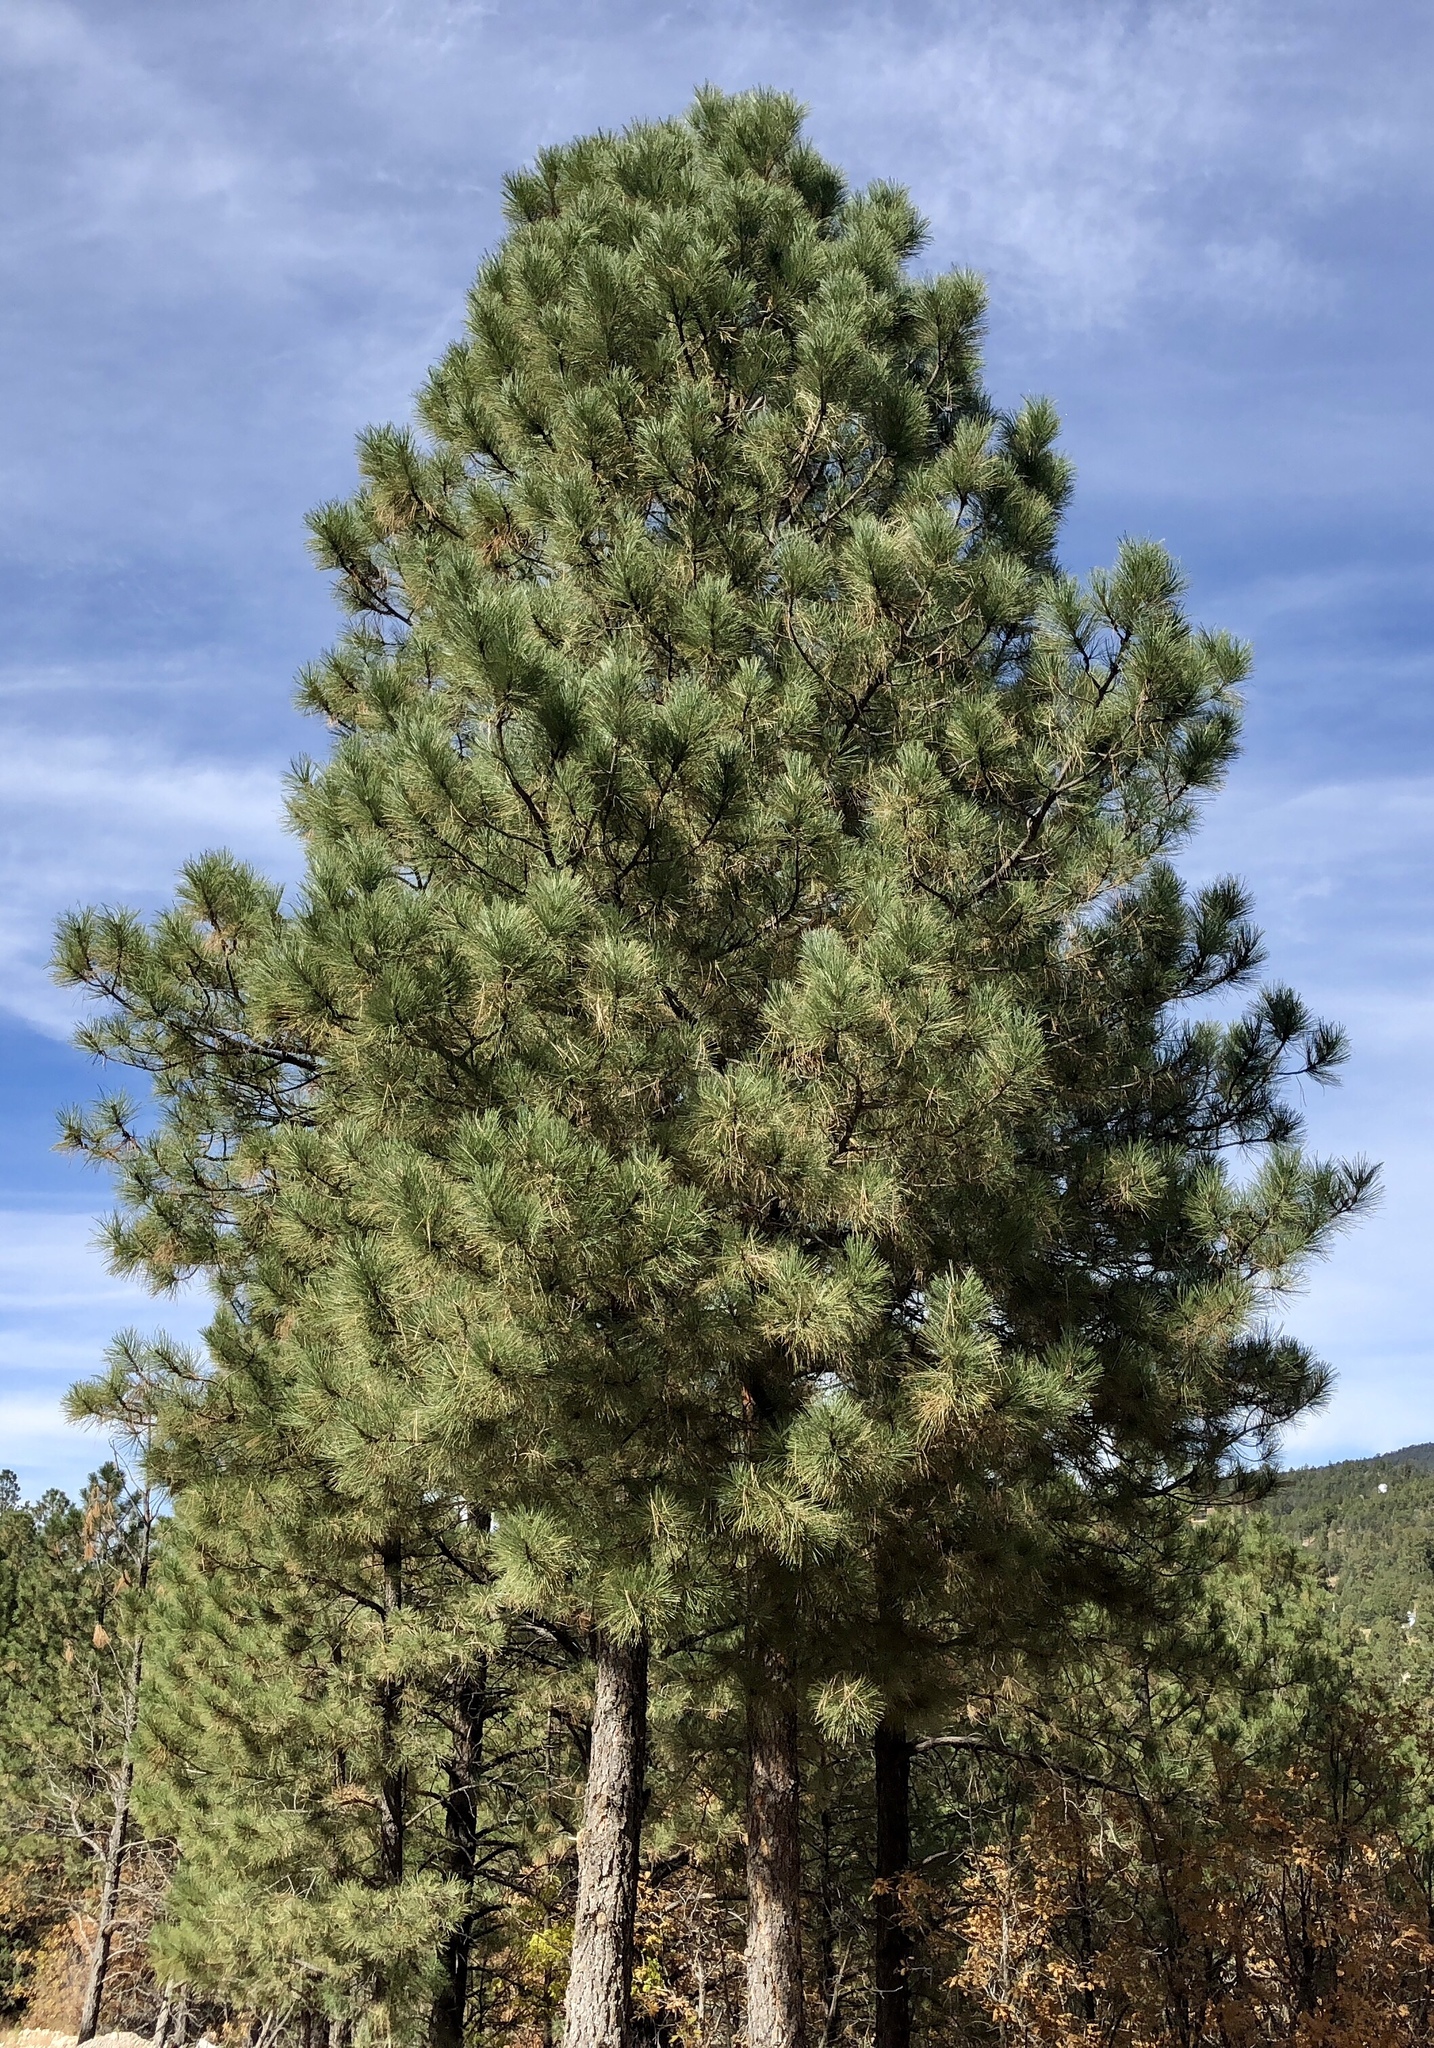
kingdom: Plantae
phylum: Tracheophyta
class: Pinopsida
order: Pinales
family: Pinaceae
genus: Pinus
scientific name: Pinus ponderosa
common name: Western yellow-pine
